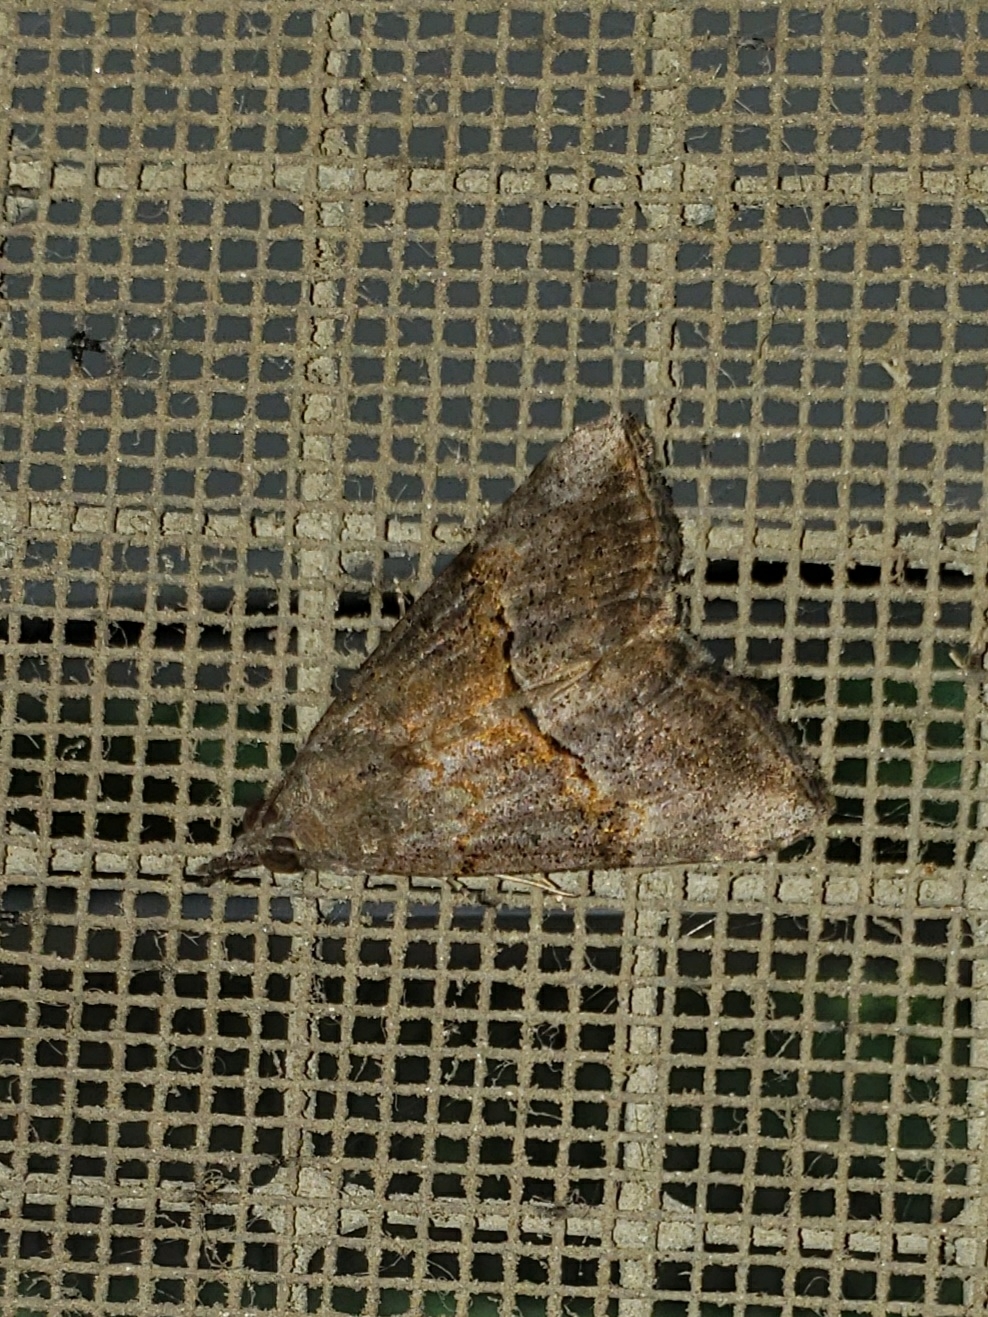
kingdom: Animalia
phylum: Arthropoda
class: Insecta
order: Lepidoptera
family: Erebidae
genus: Hypena
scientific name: Hypena scabra
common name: Green cloverworm
